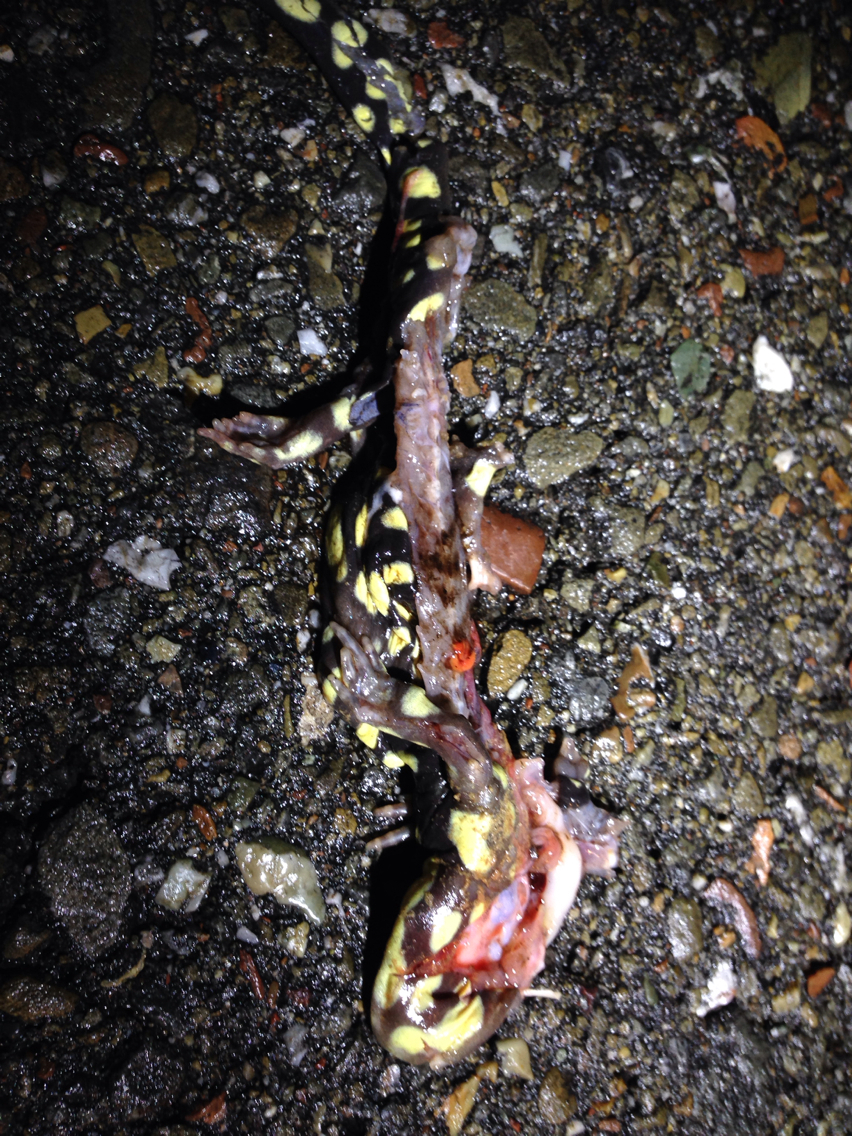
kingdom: Animalia
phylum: Chordata
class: Amphibia
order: Caudata
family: Ambystomatidae
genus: Ambystoma
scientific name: Ambystoma californiense
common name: California tiger salamander
